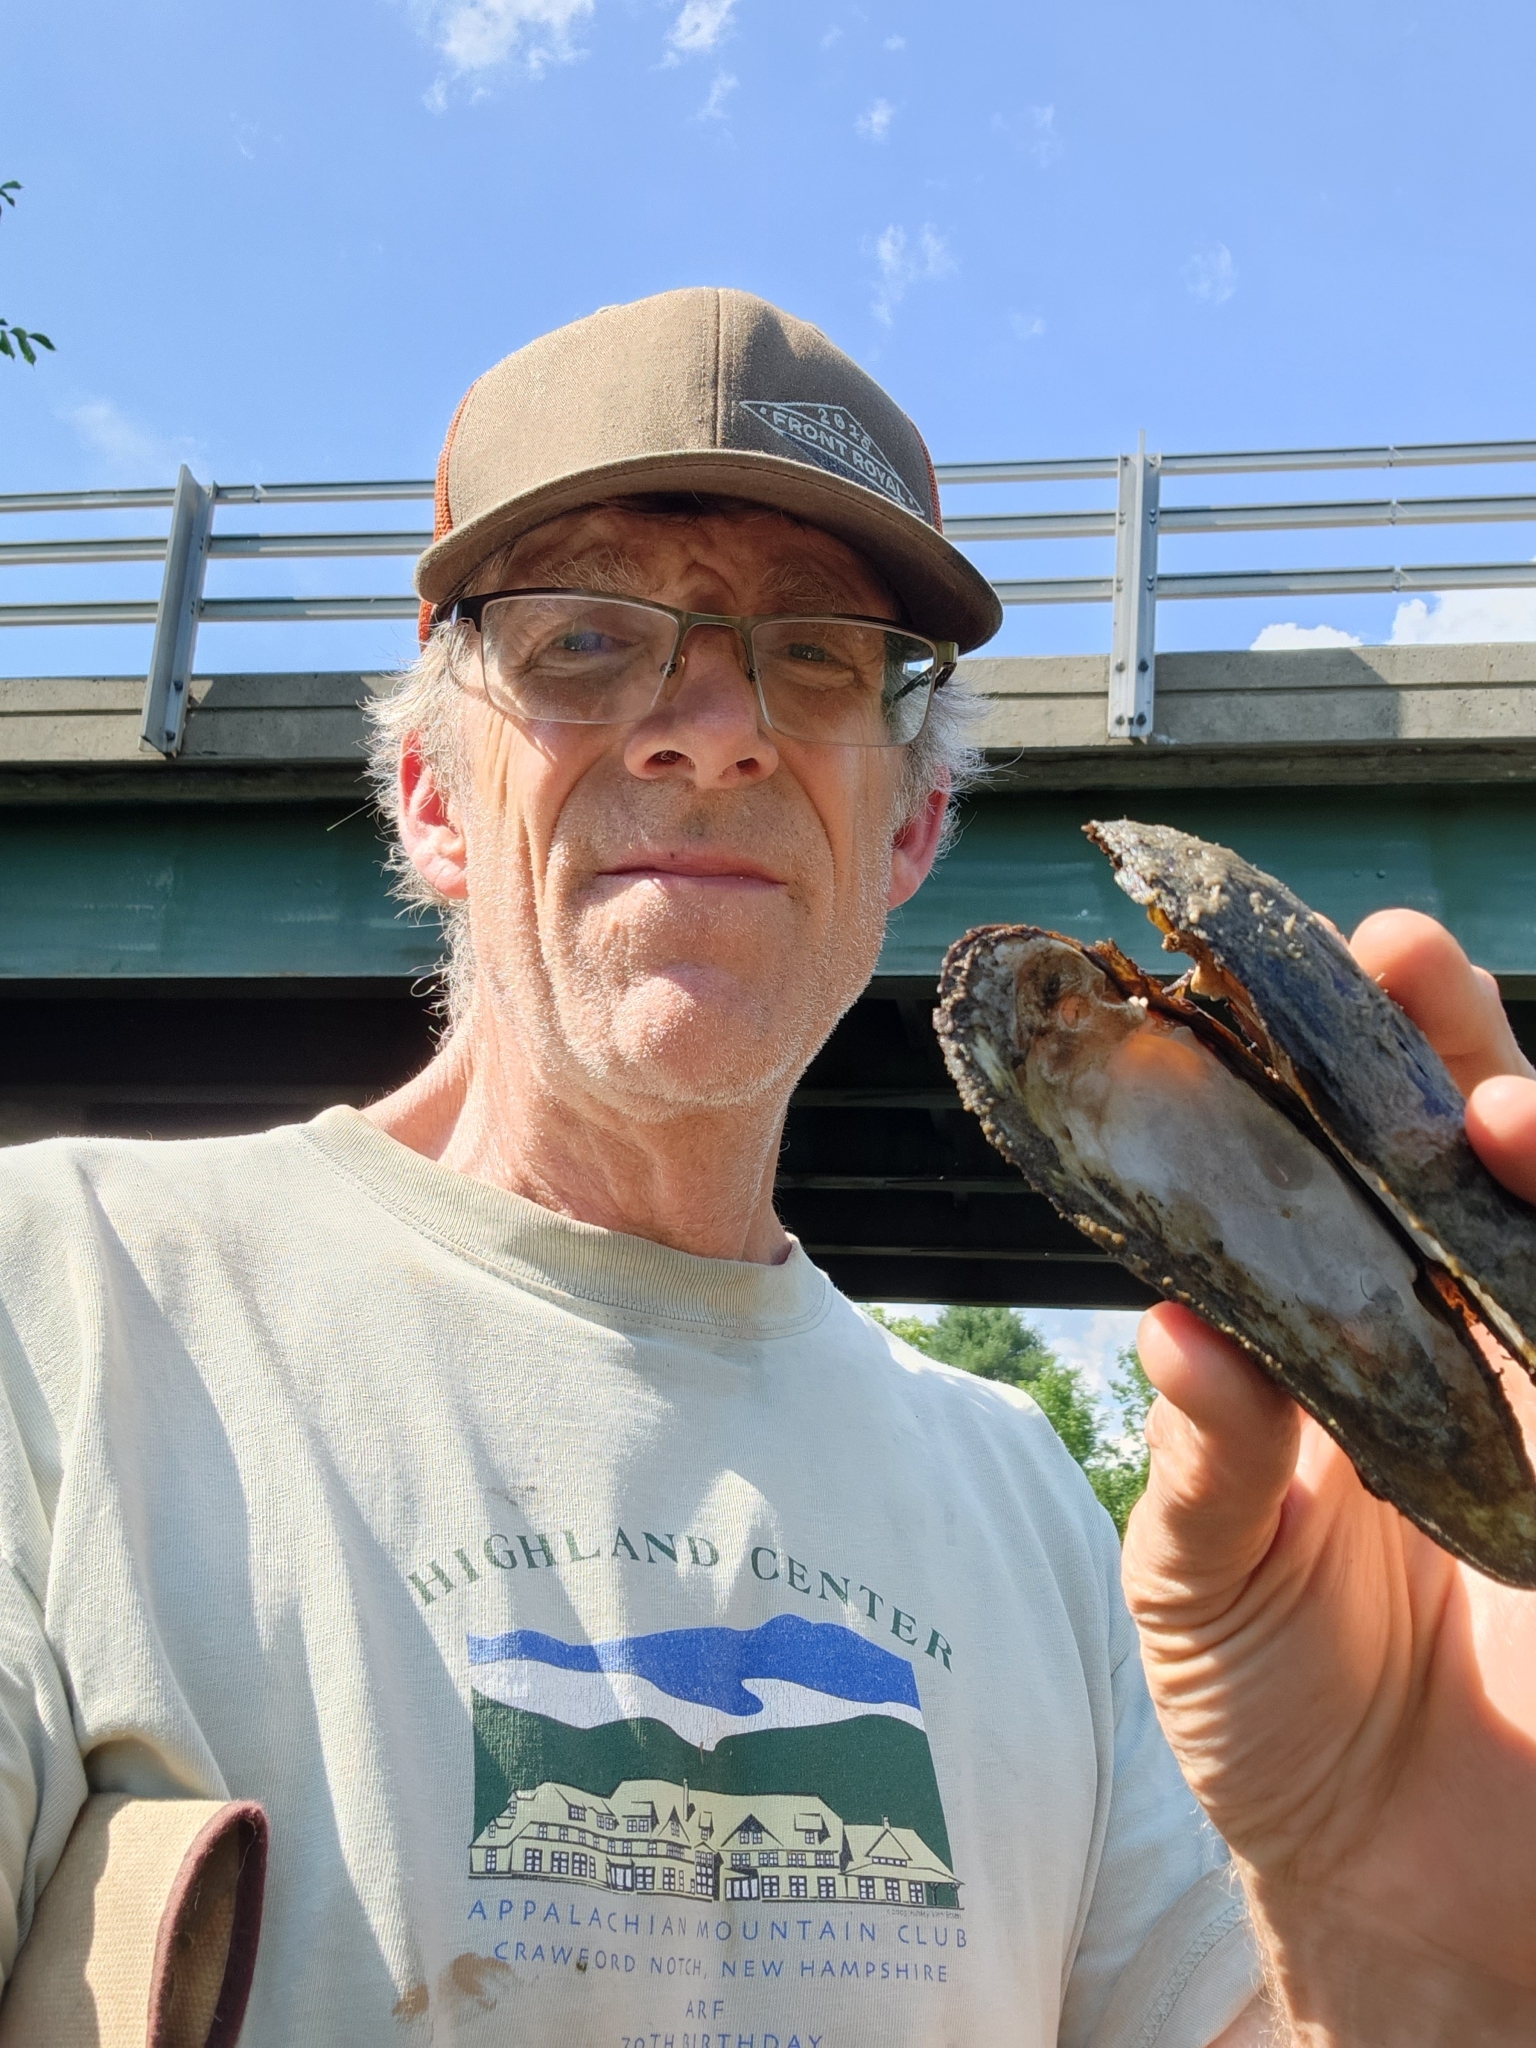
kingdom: Animalia
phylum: Mollusca
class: Bivalvia
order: Unionida
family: Margaritiferidae
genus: Margaritifera
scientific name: Margaritifera margaritifera
